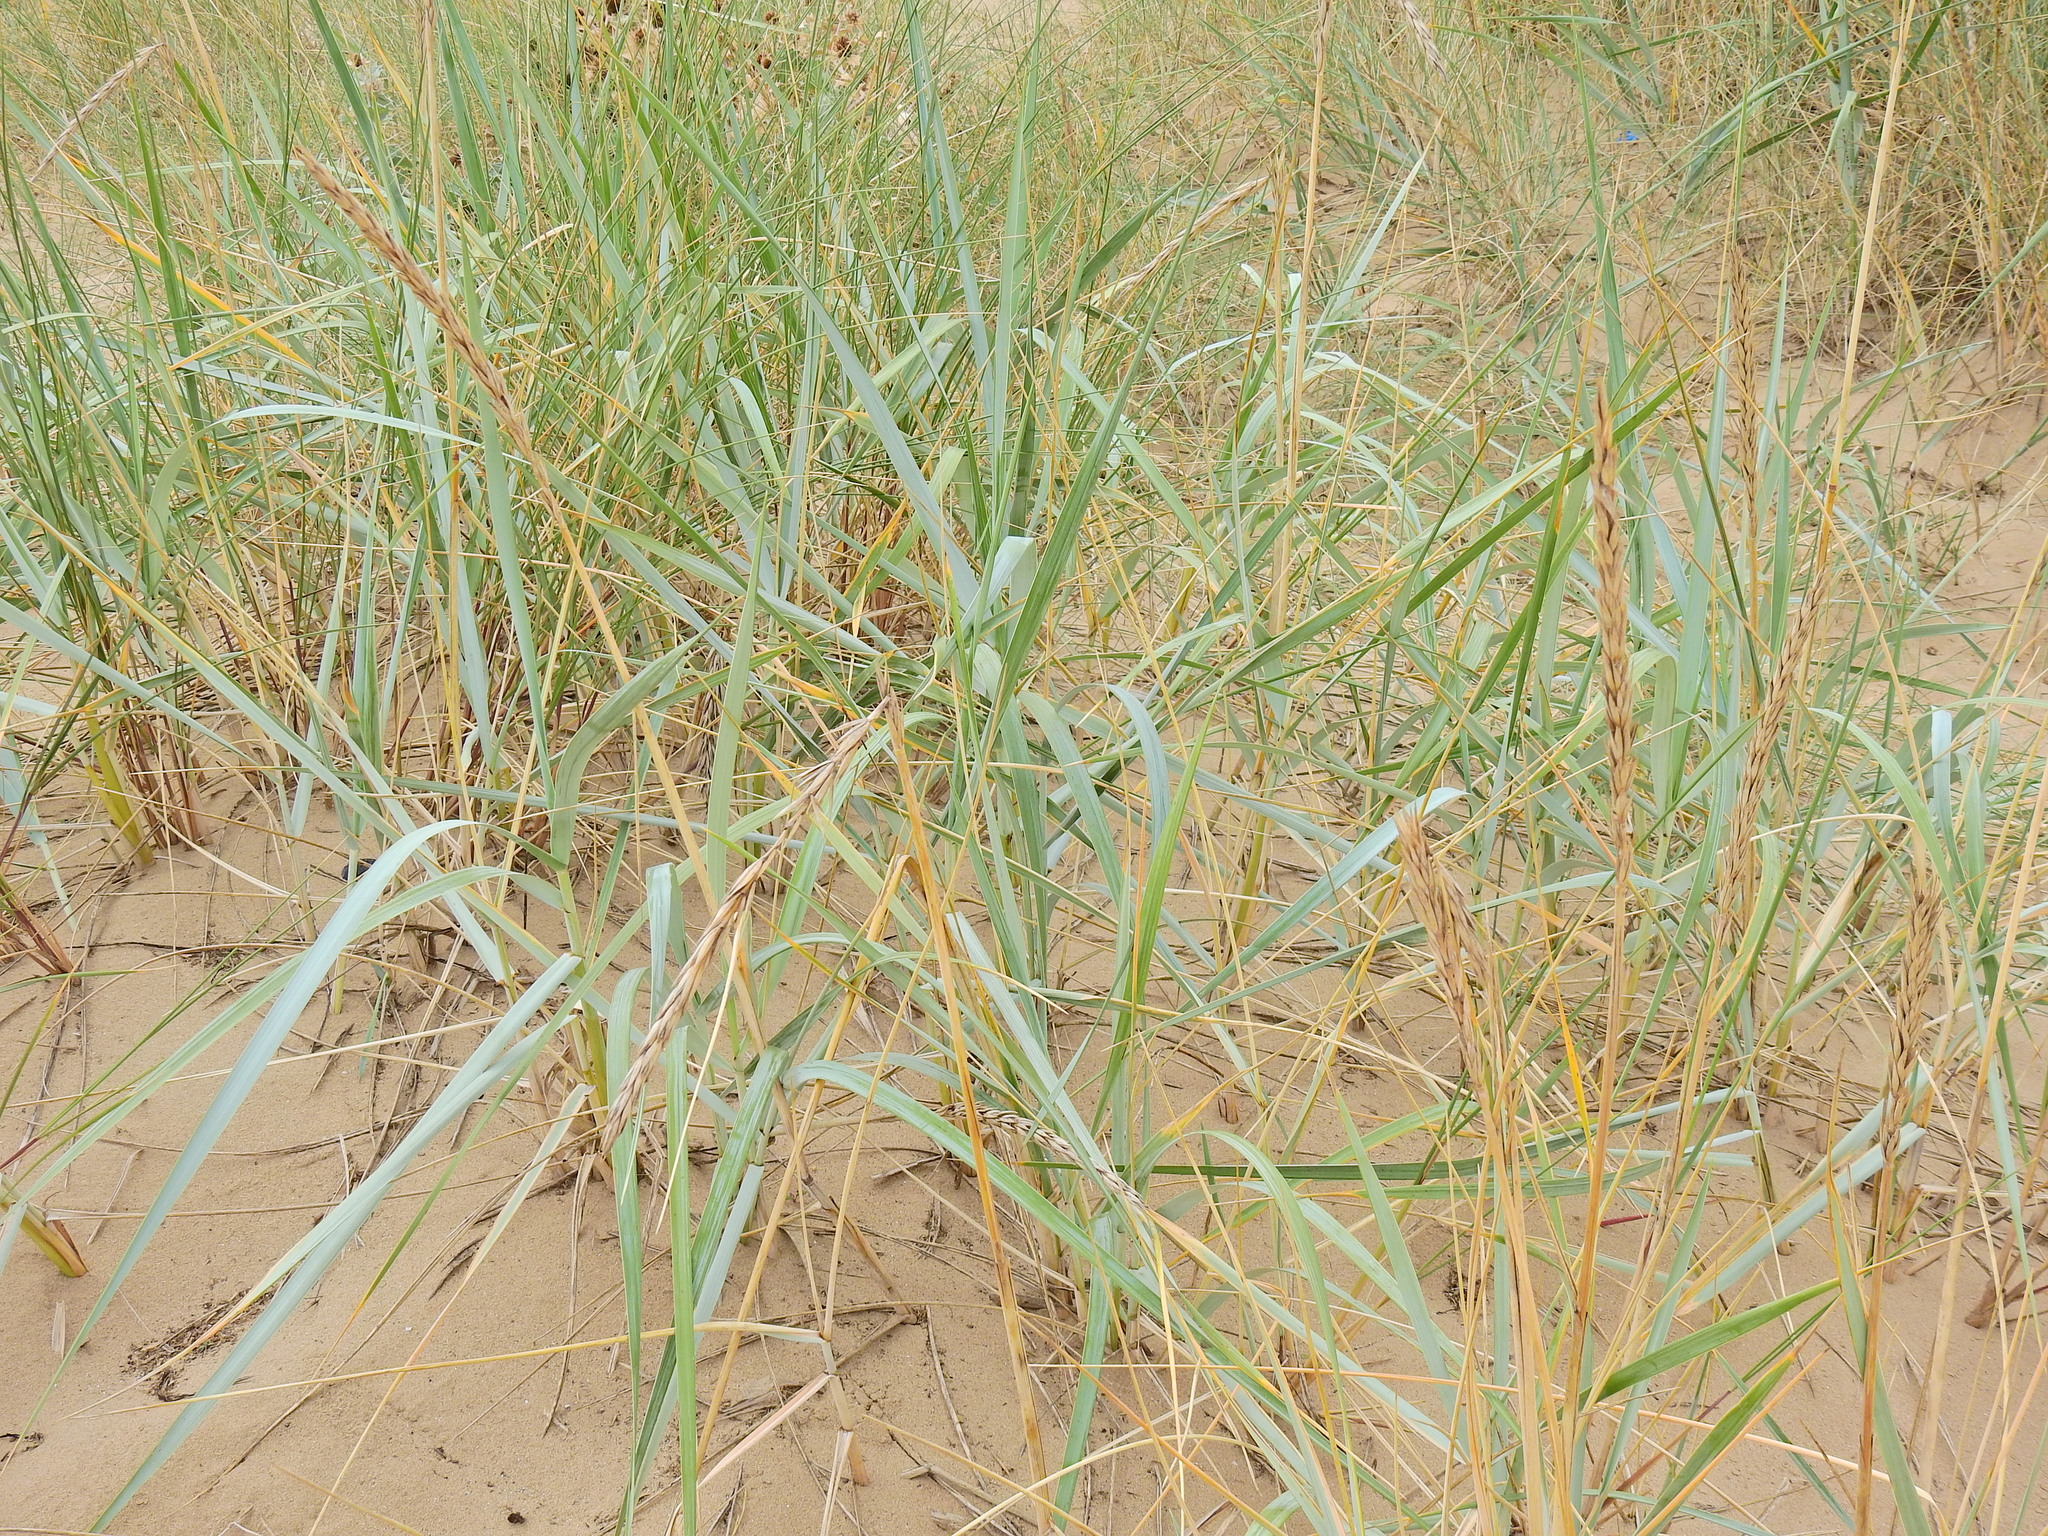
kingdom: Plantae
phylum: Tracheophyta
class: Liliopsida
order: Poales
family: Poaceae
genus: Leymus
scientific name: Leymus arenarius
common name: Lyme-grass
